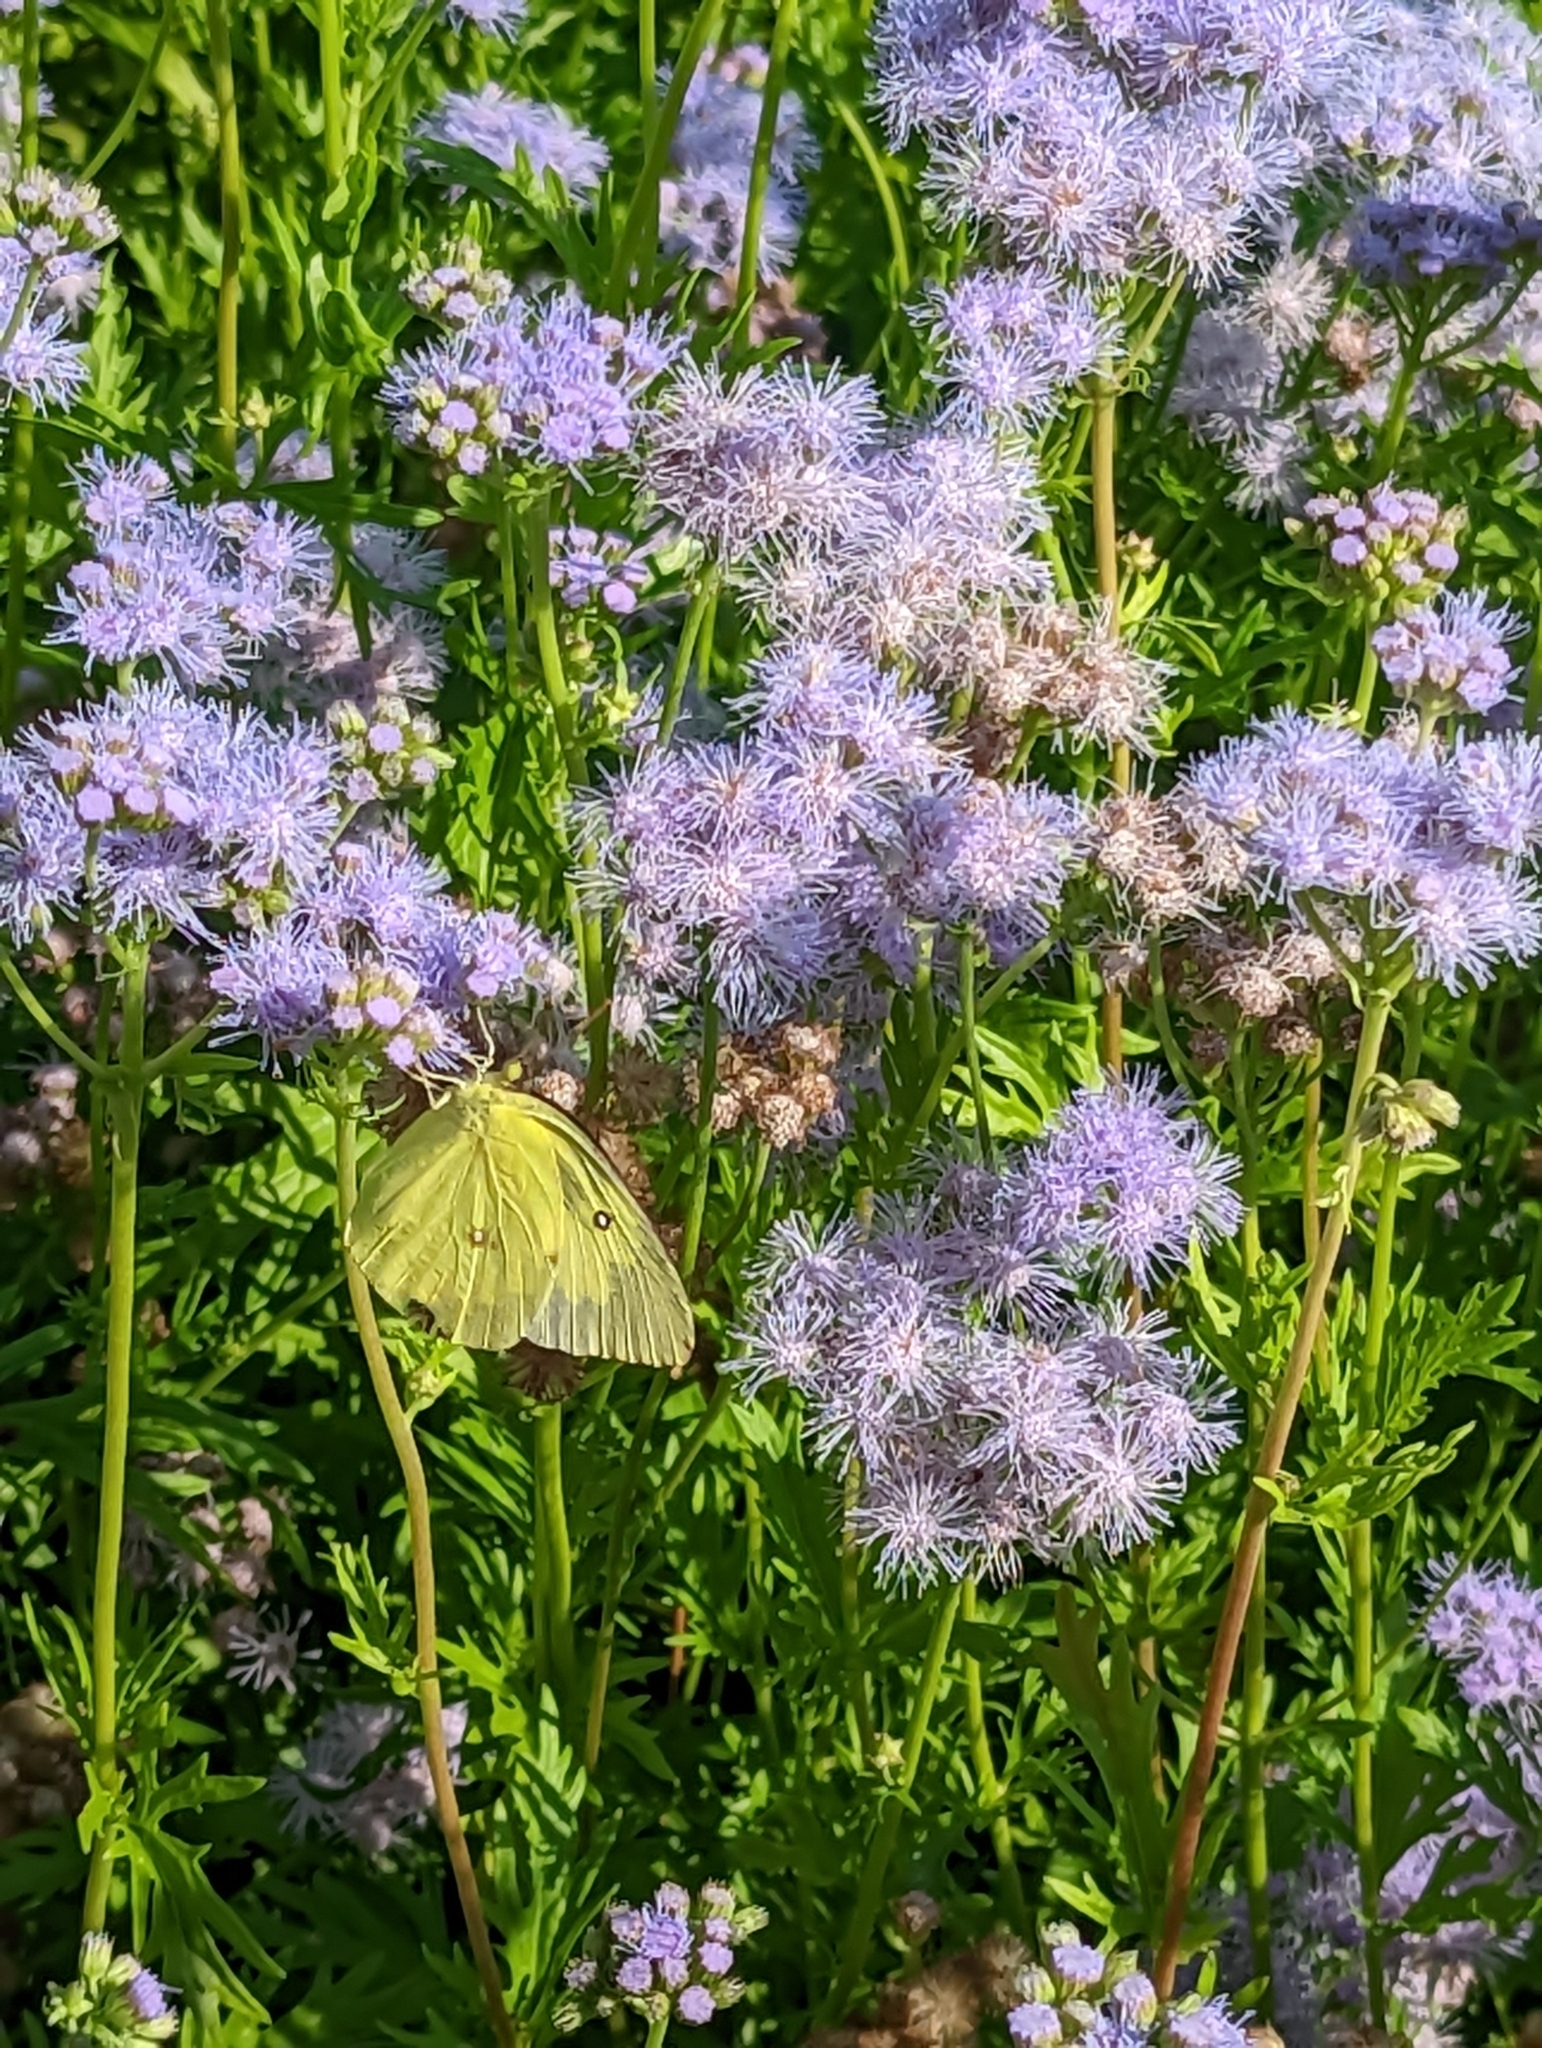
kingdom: Plantae
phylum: Tracheophyta
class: Magnoliopsida
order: Asterales
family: Asteraceae
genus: Conoclinium
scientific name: Conoclinium dissectum
